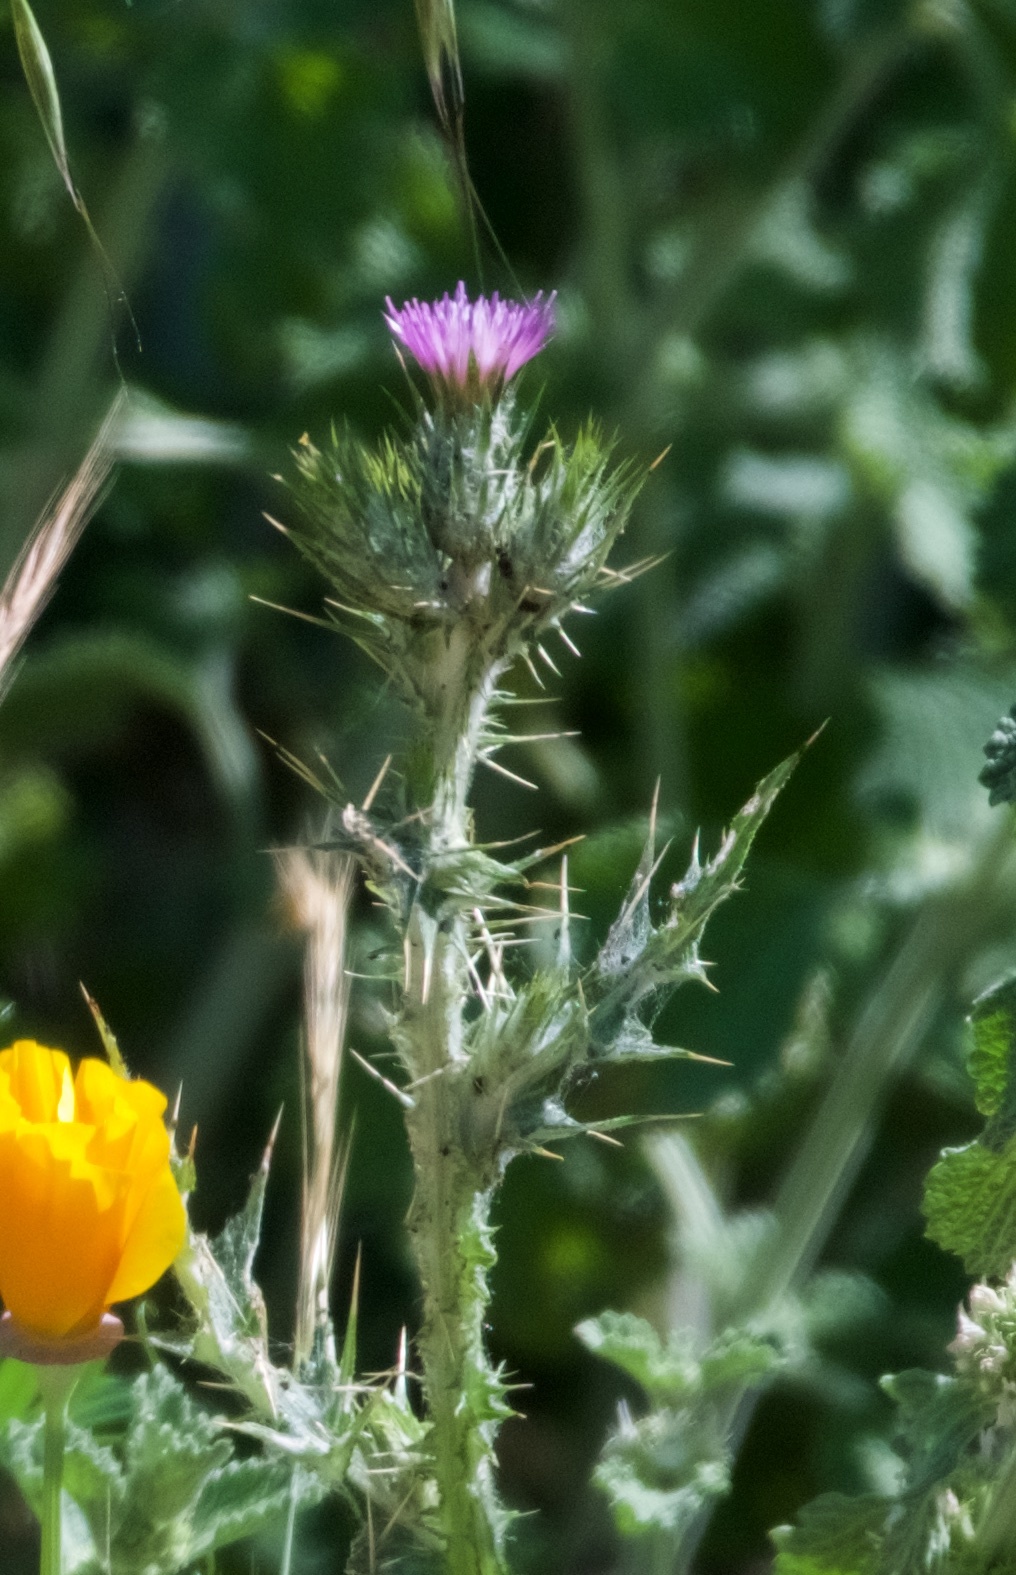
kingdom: Plantae
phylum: Tracheophyta
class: Magnoliopsida
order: Asterales
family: Asteraceae
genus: Carduus
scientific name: Carduus pycnocephalus
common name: Plymouth thistle
